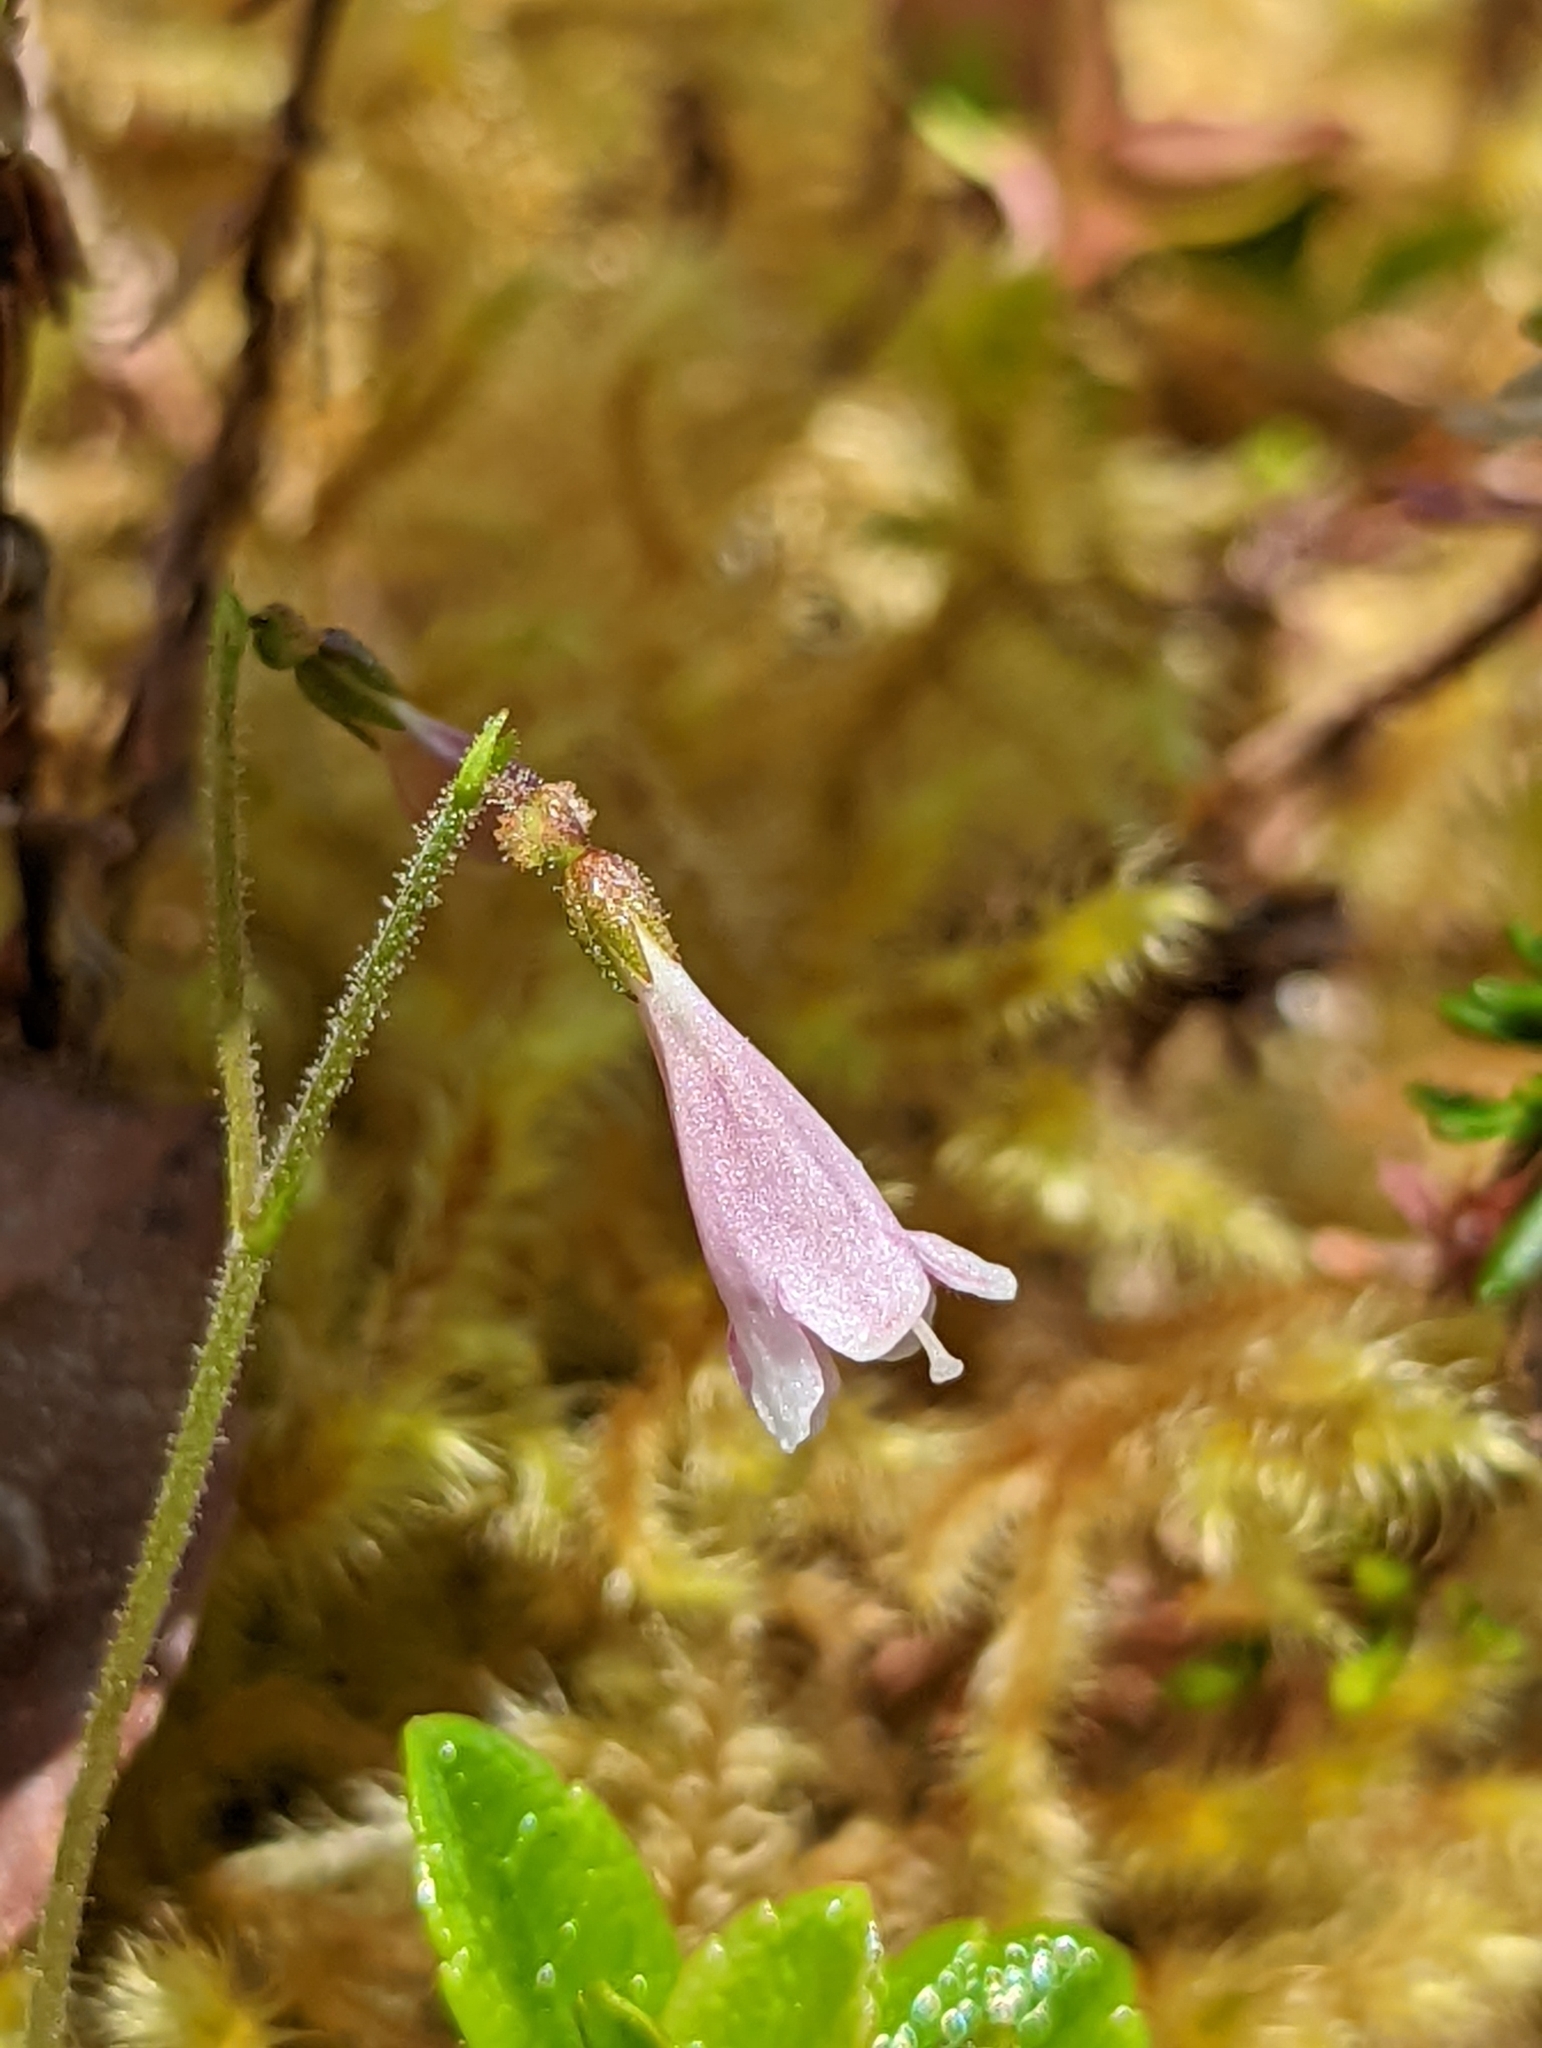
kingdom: Plantae
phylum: Tracheophyta
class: Magnoliopsida
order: Dipsacales
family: Caprifoliaceae
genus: Linnaea
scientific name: Linnaea borealis
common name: Twinflower
